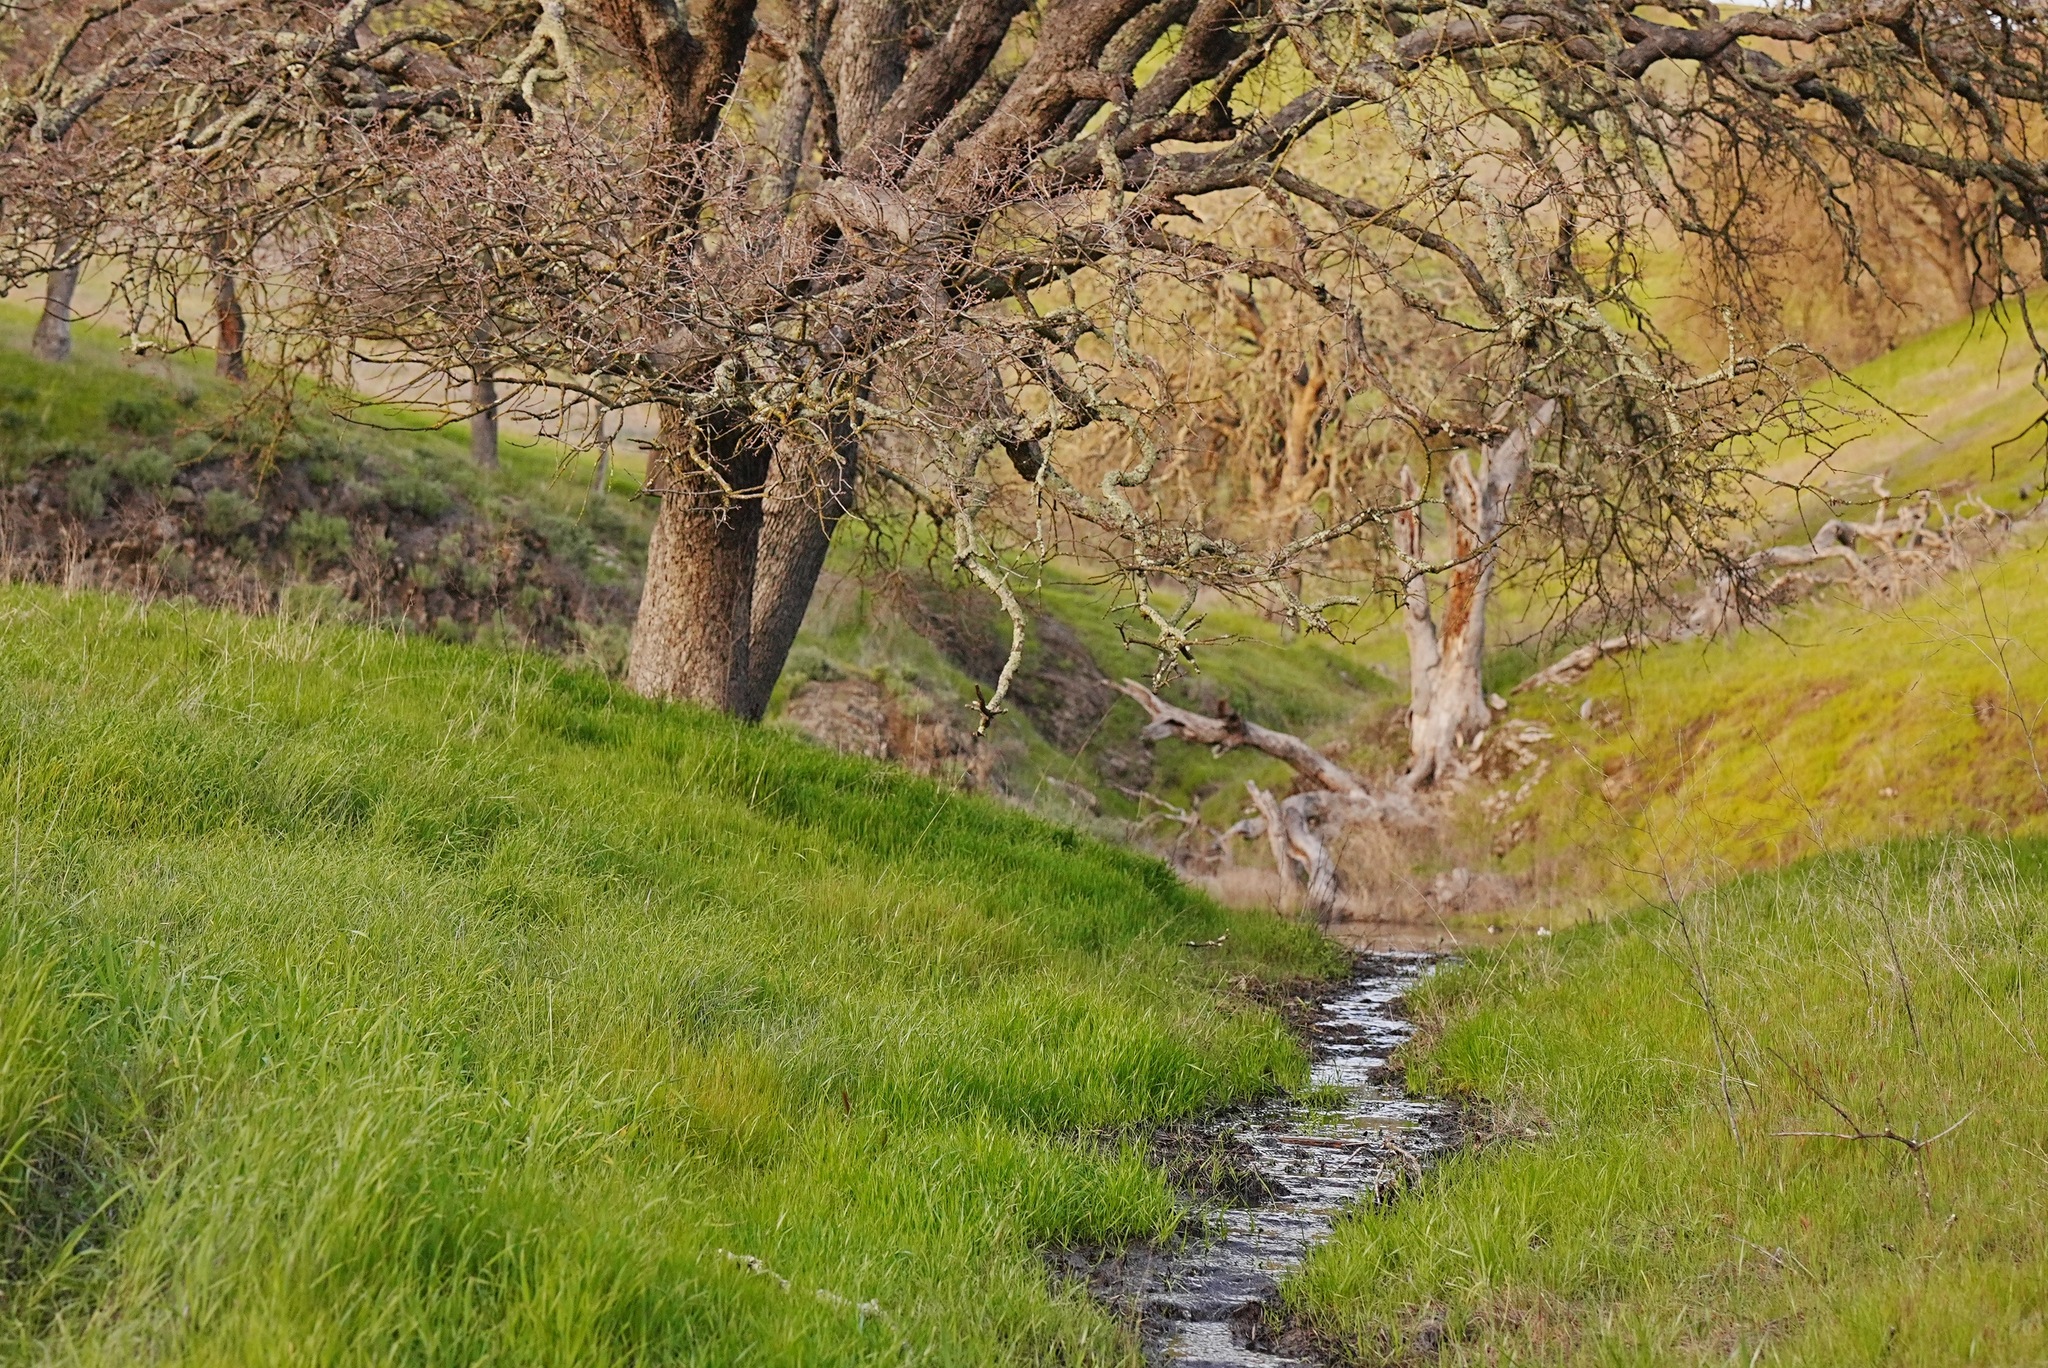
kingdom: Animalia
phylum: Chordata
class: Mammalia
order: Carnivora
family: Mustelidae
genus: Taxidea
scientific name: Taxidea taxus
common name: American badger
